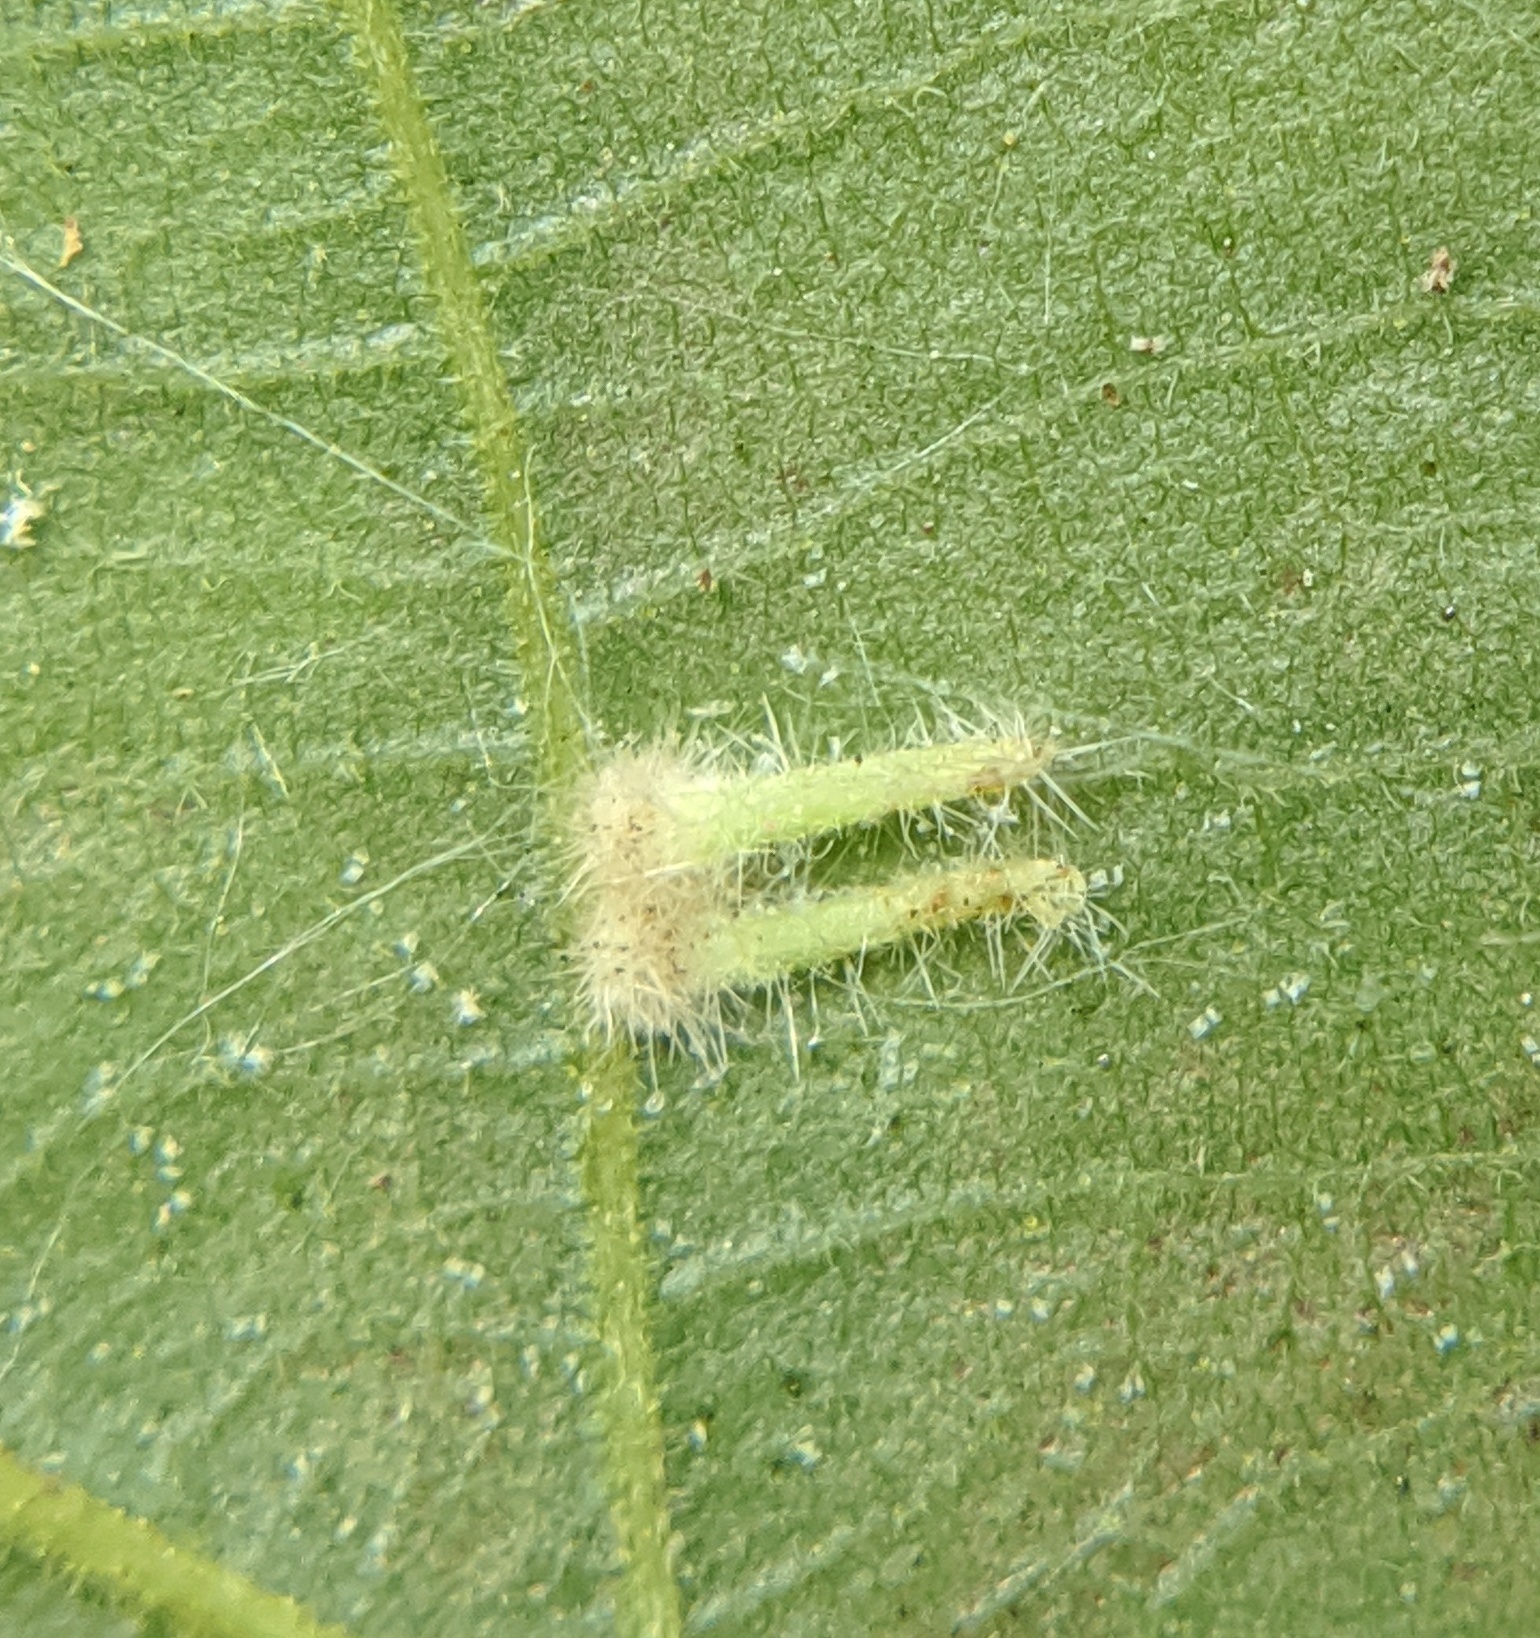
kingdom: Animalia
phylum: Arthropoda
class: Insecta
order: Diptera
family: Cecidomyiidae
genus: Caryomyia
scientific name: Caryomyia inclinata
